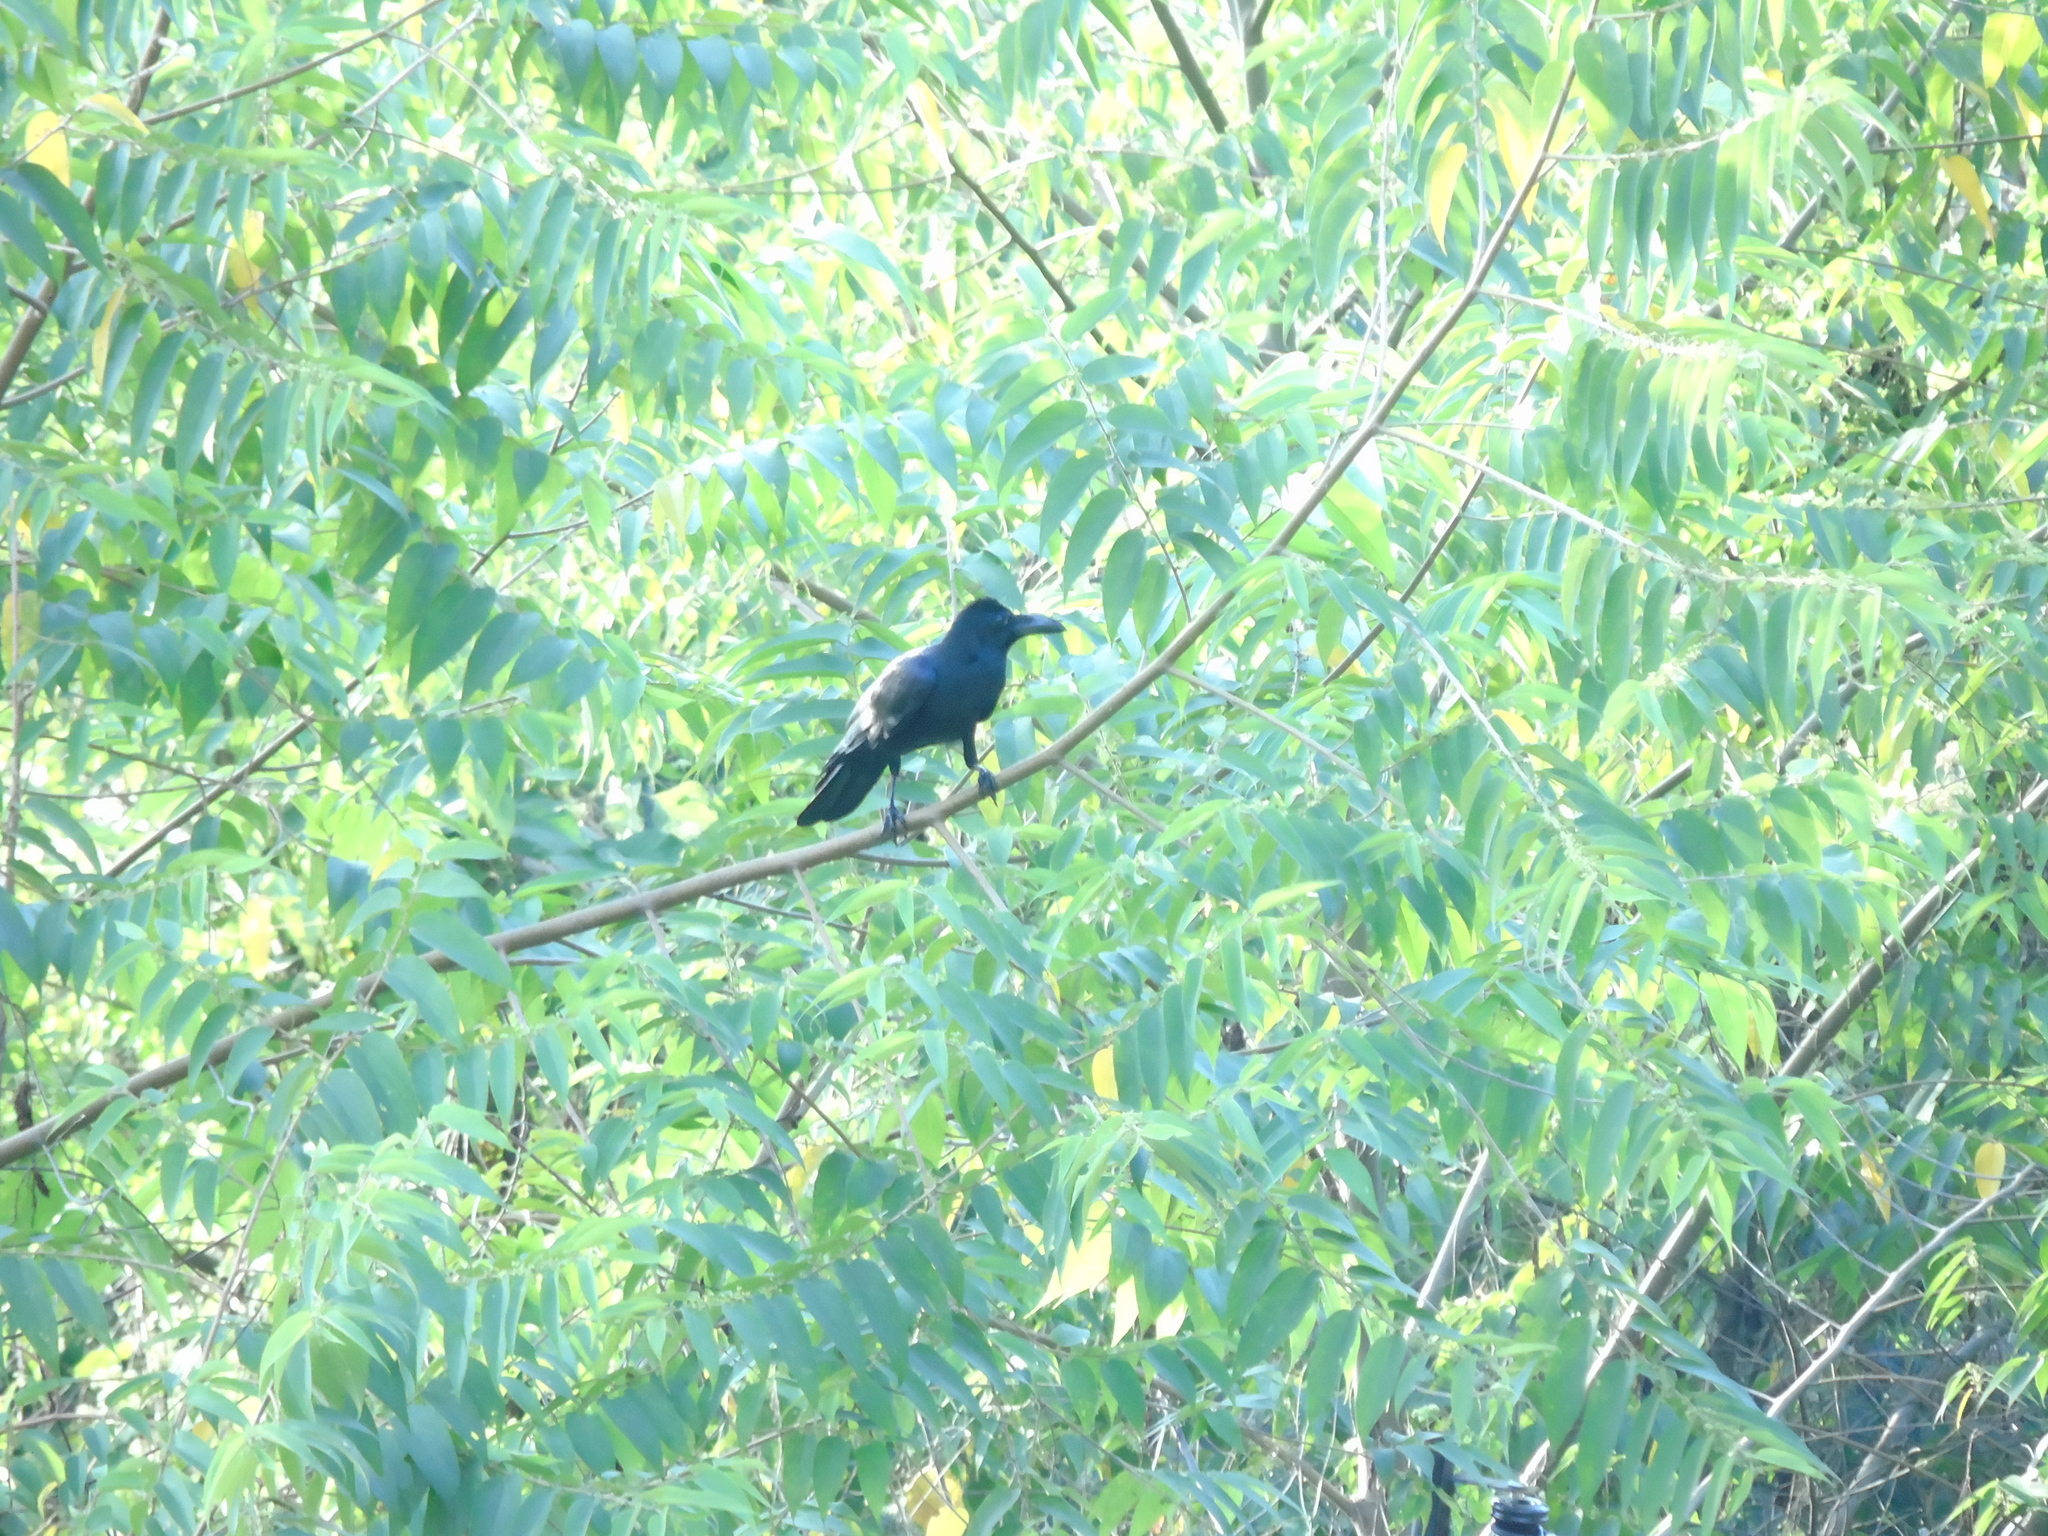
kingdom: Animalia
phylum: Chordata
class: Aves
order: Passeriformes
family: Corvidae
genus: Corvus
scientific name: Corvus macrorhynchos
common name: Large-billed crow
